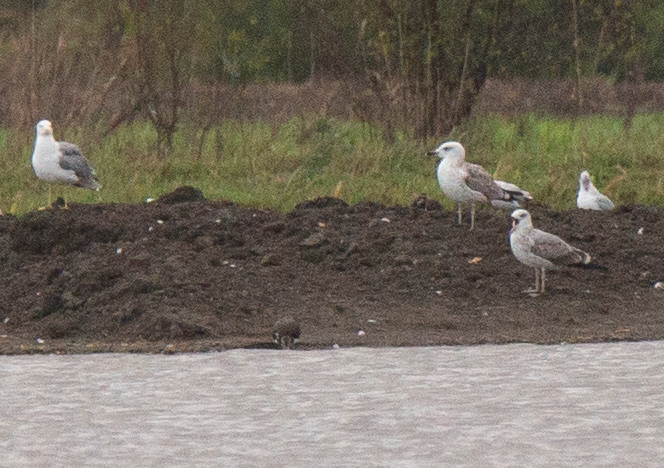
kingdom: Animalia
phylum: Chordata
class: Aves
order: Charadriiformes
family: Laridae
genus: Larus
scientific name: Larus michahellis
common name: Yellow-legged gull
